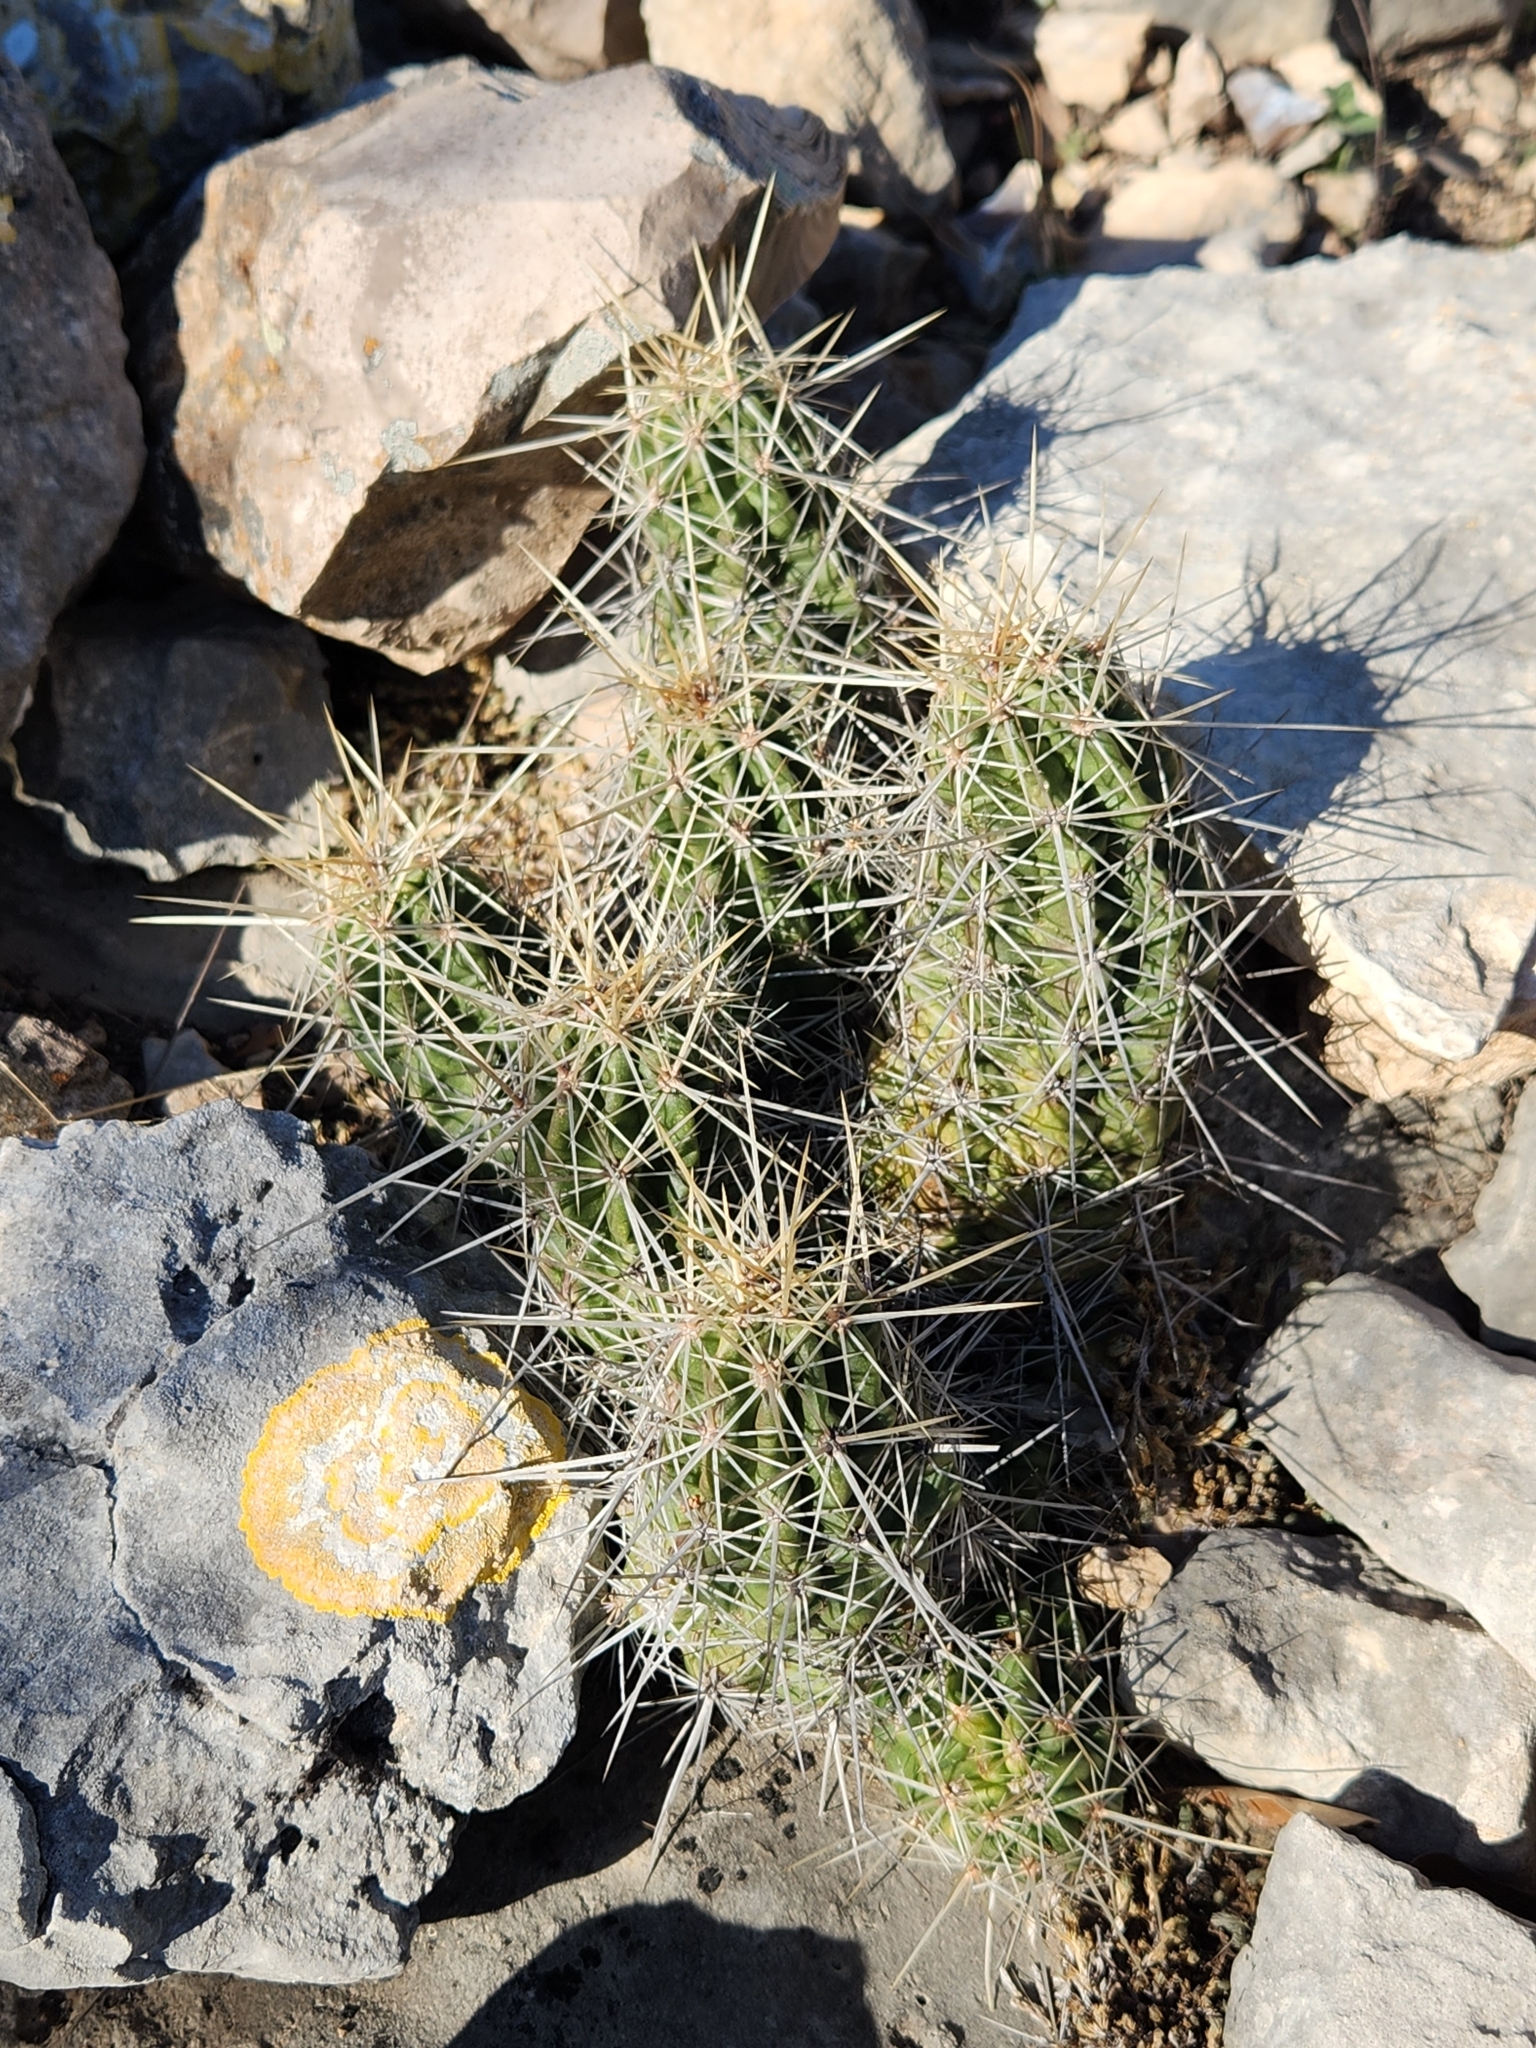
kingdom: Plantae
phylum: Tracheophyta
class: Magnoliopsida
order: Caryophyllales
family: Cactaceae
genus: Echinocereus
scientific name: Echinocereus enneacanthus
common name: Pitaya
